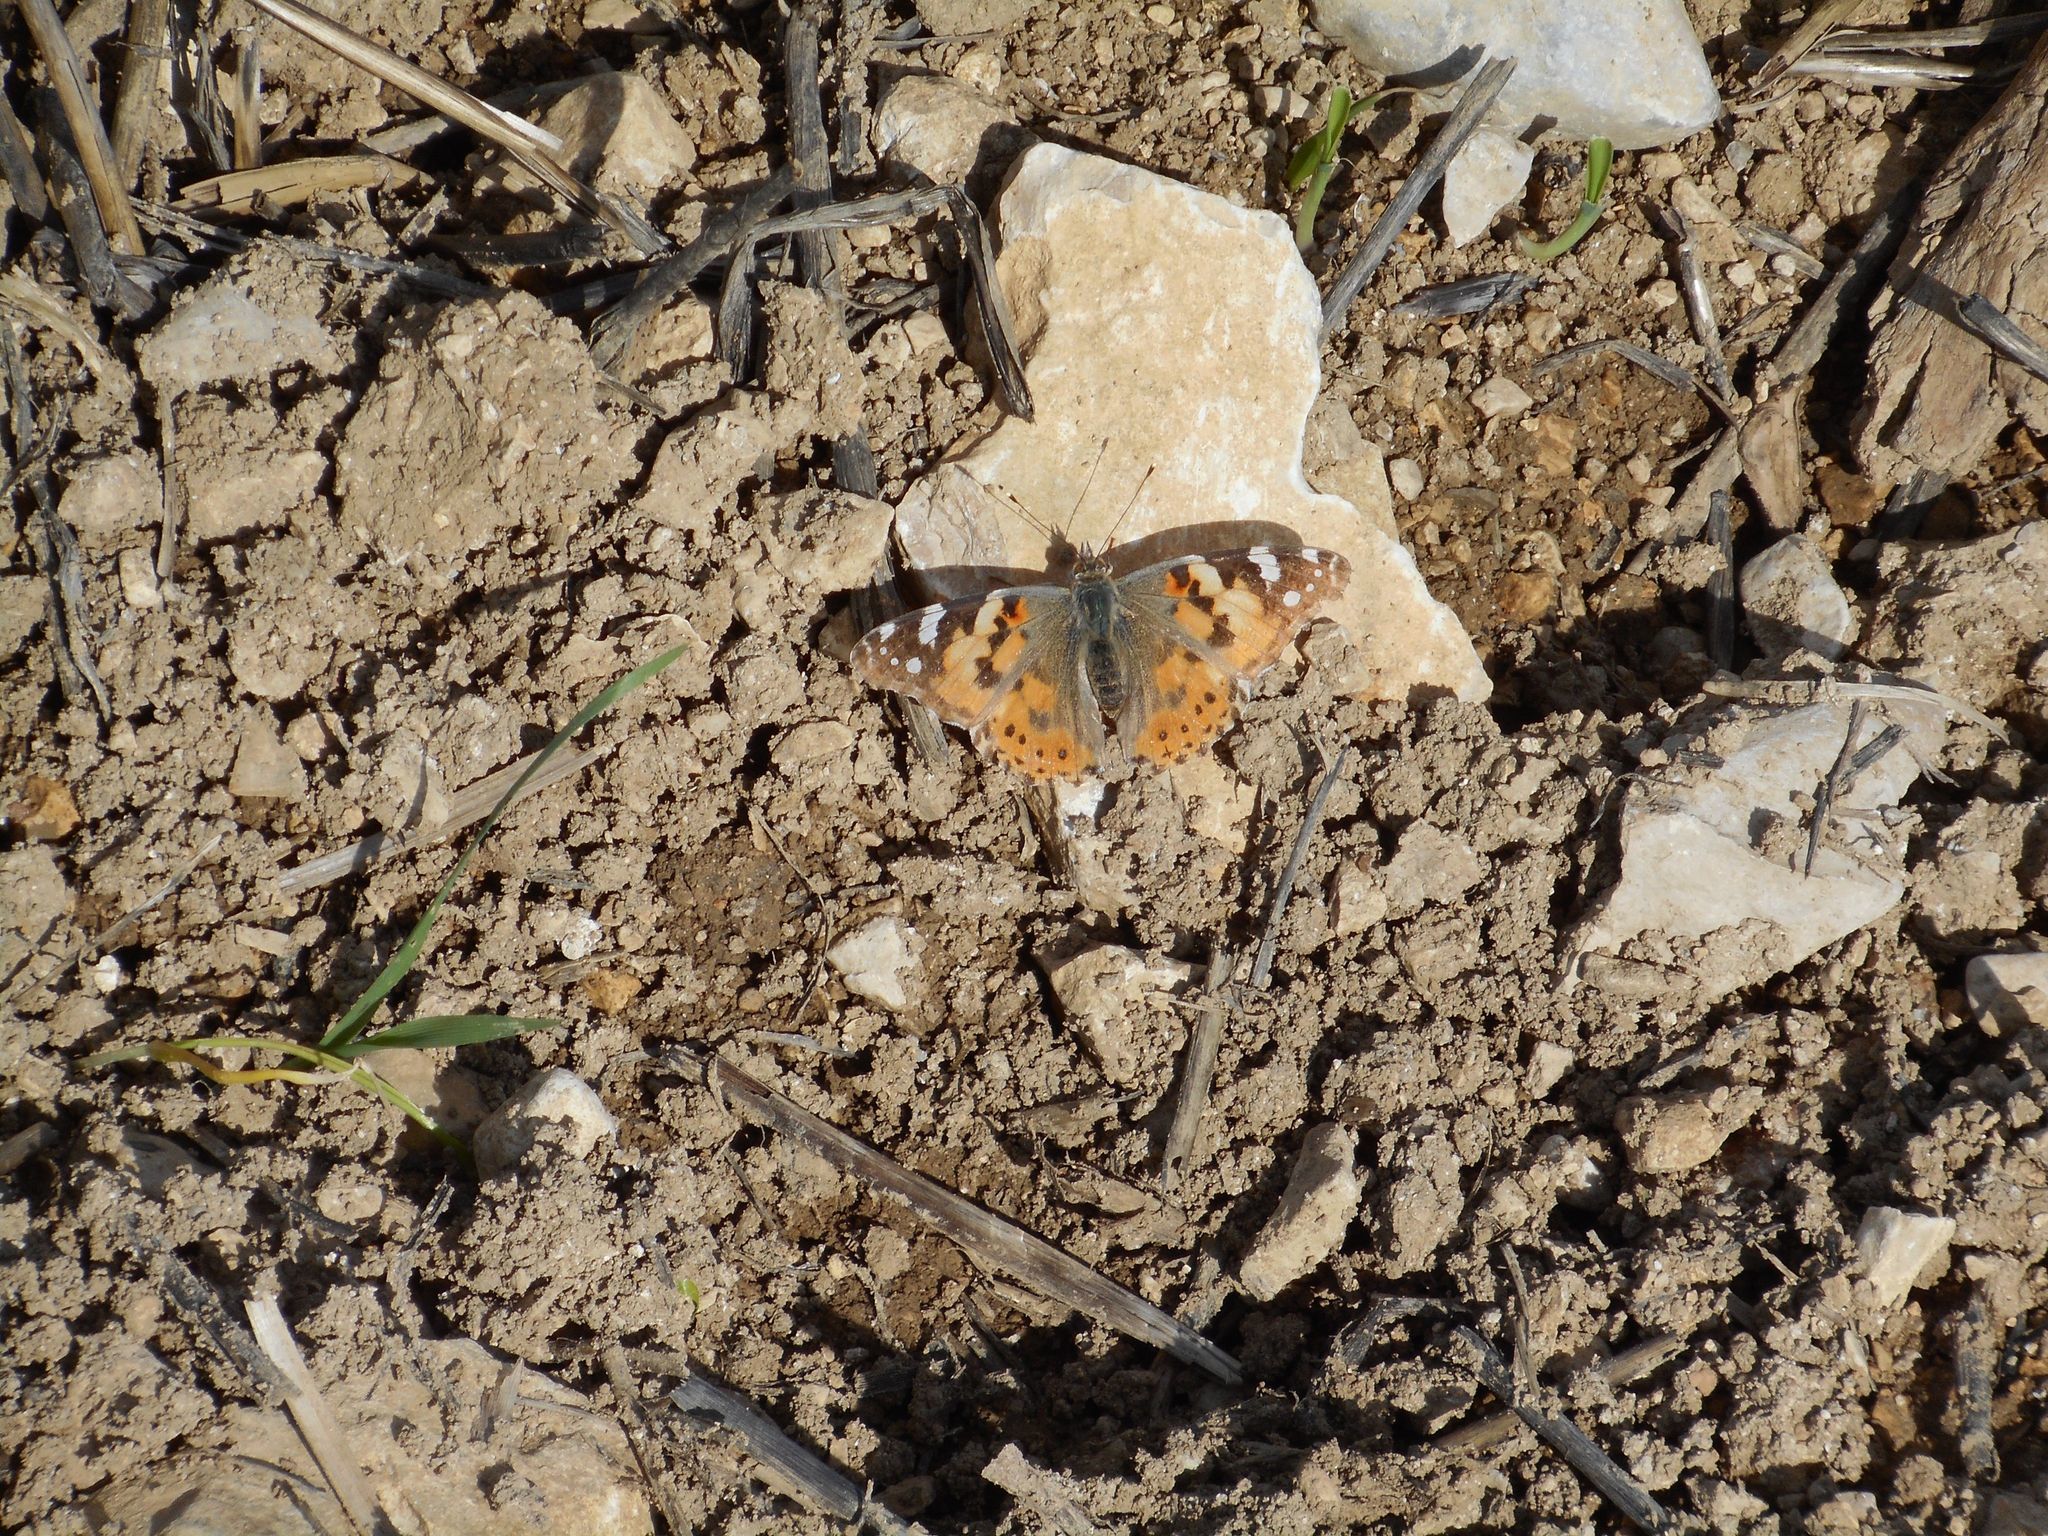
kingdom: Animalia
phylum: Arthropoda
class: Insecta
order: Lepidoptera
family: Nymphalidae
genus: Vanessa
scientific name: Vanessa cardui
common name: Painted lady
